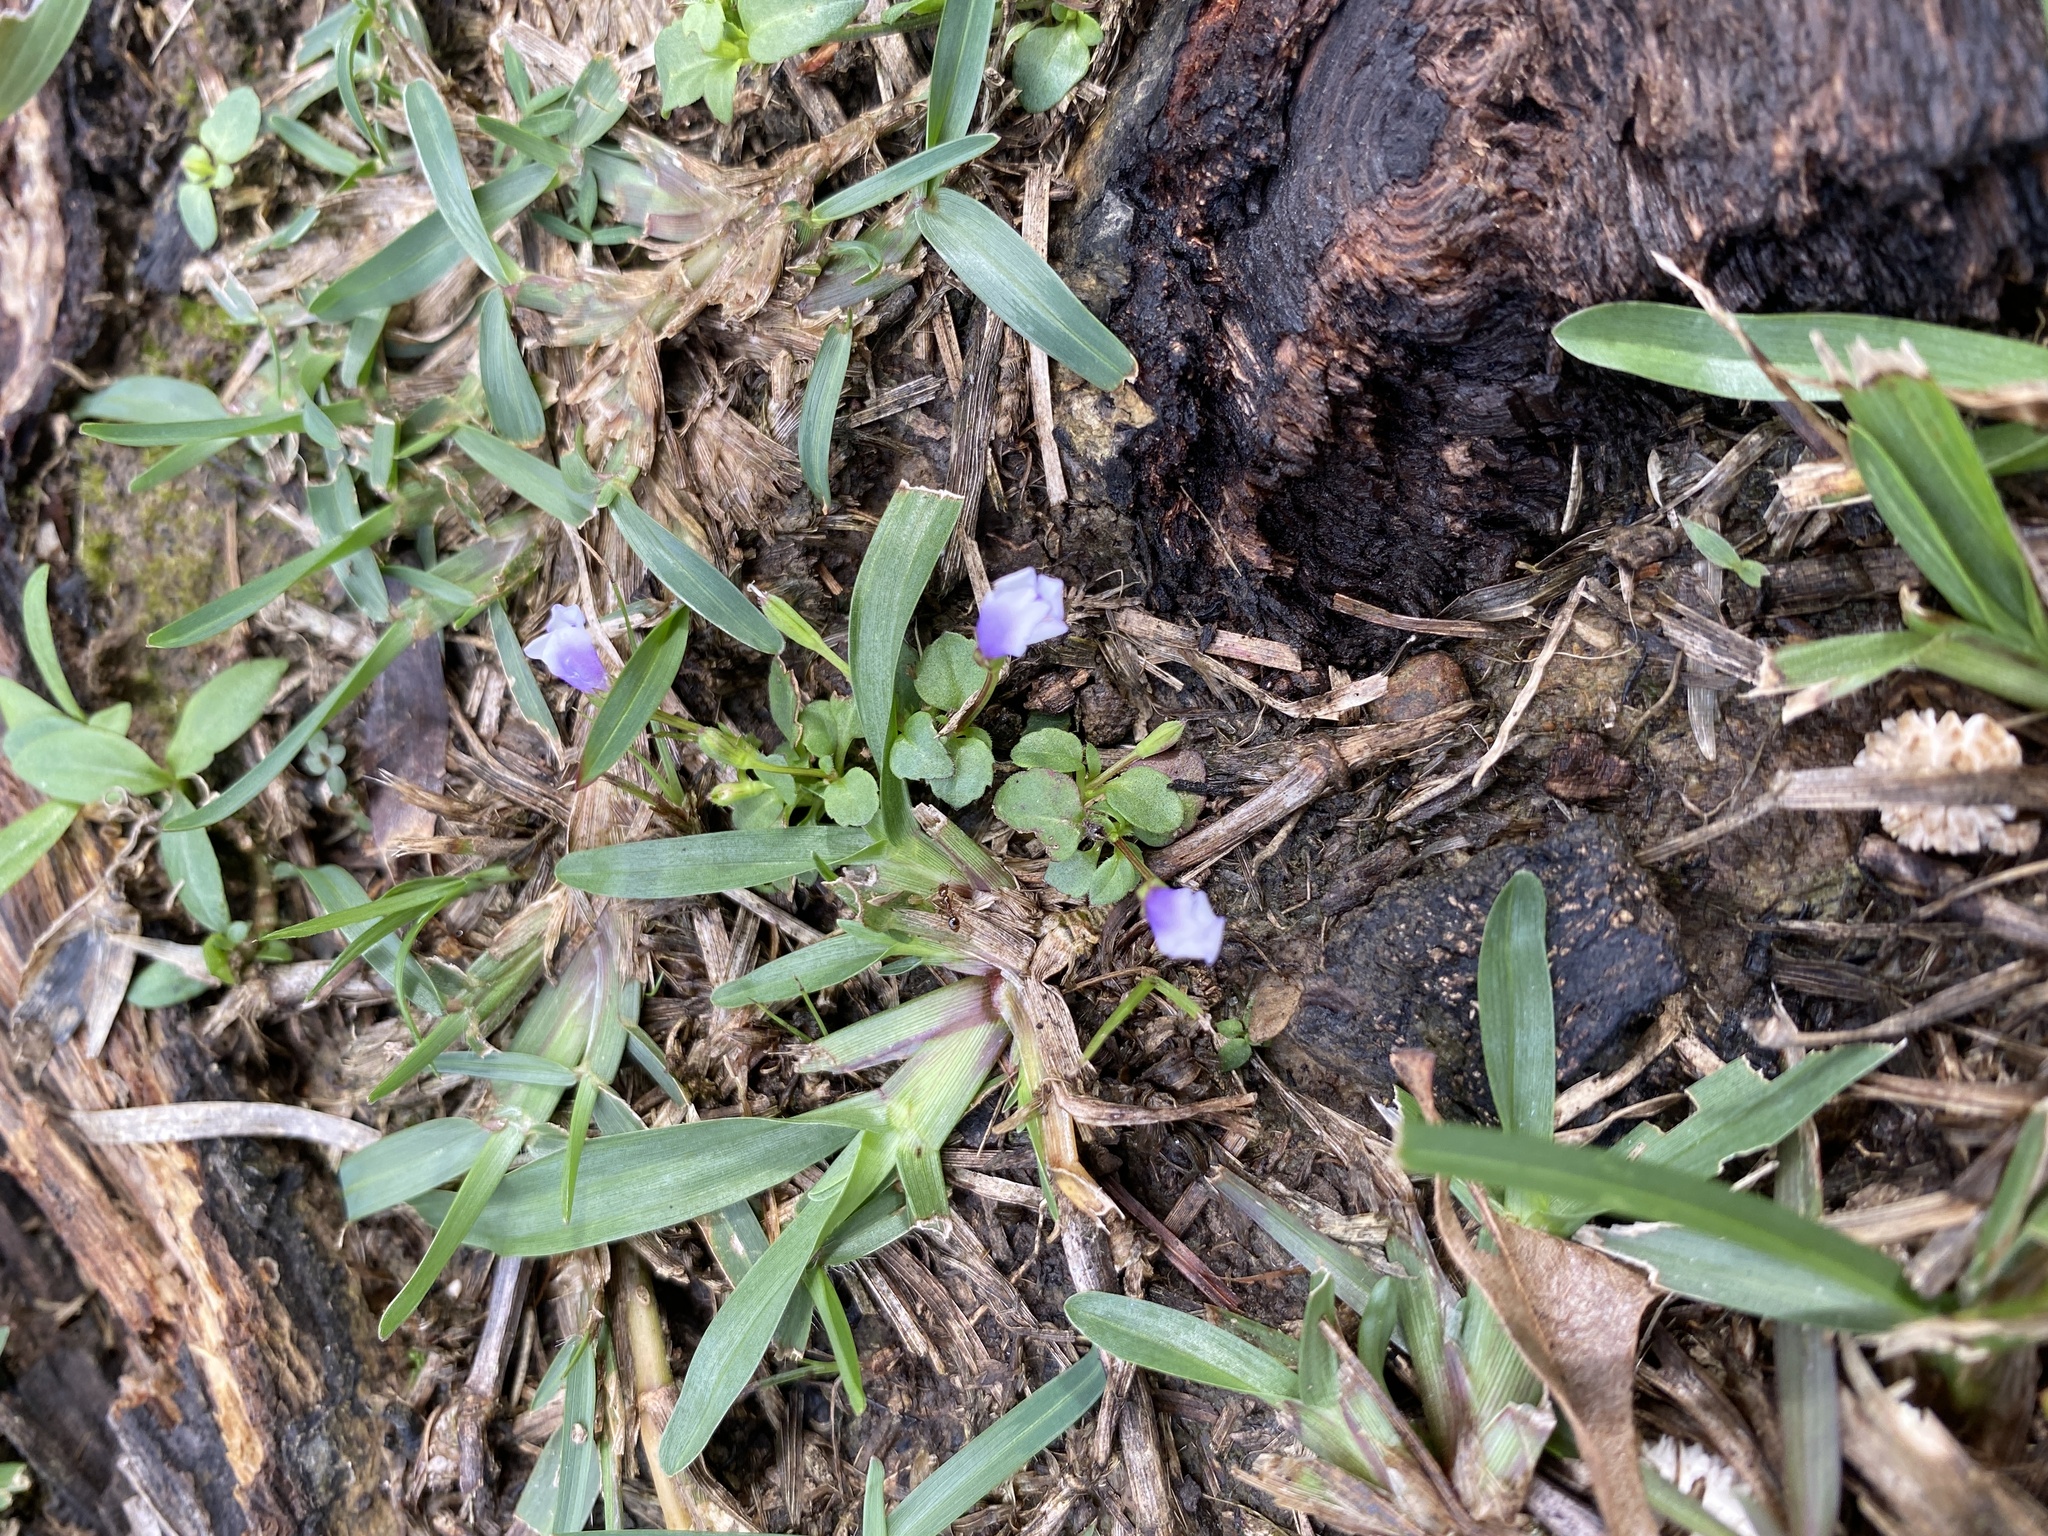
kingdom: Plantae
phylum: Tracheophyta
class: Magnoliopsida
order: Lamiales
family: Mazaceae
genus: Mazus
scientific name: Mazus pumilus
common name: Japanese mazus
